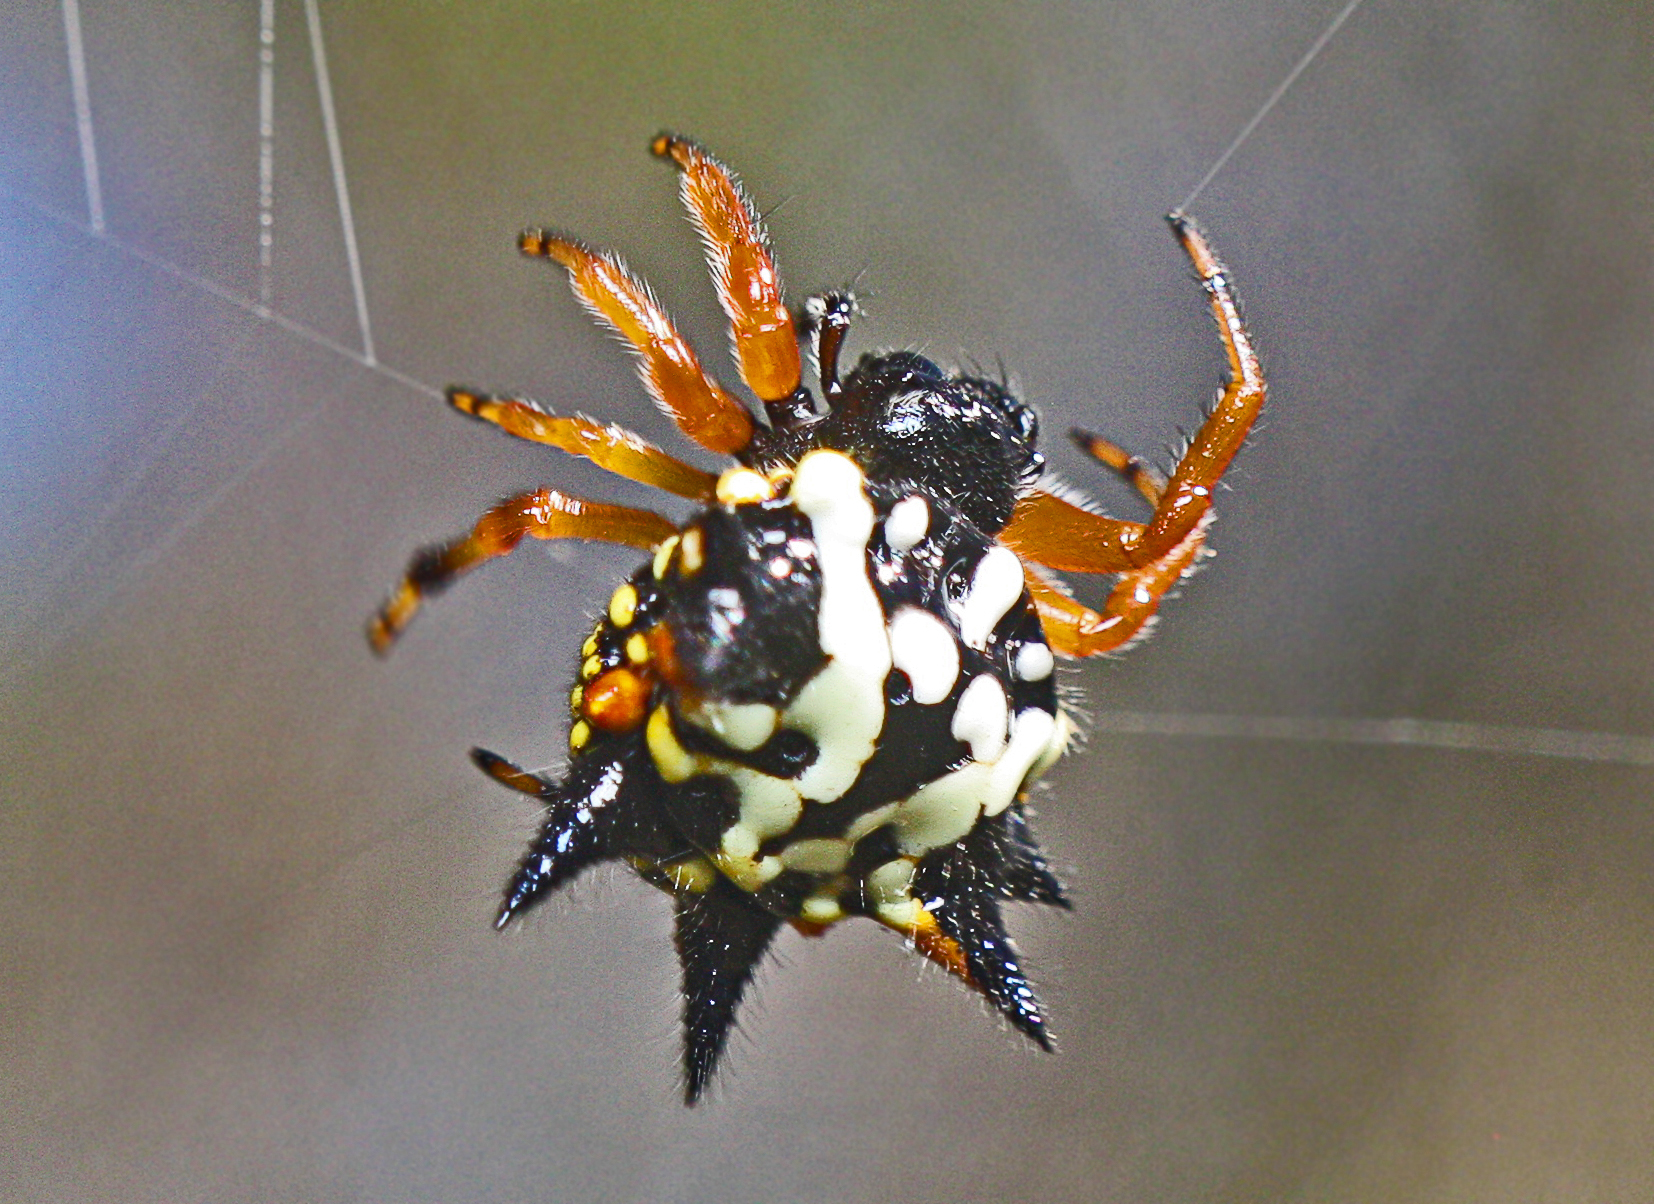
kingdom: Animalia
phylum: Arthropoda
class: Arachnida
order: Araneae
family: Araneidae
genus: Austracantha
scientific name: Austracantha minax
